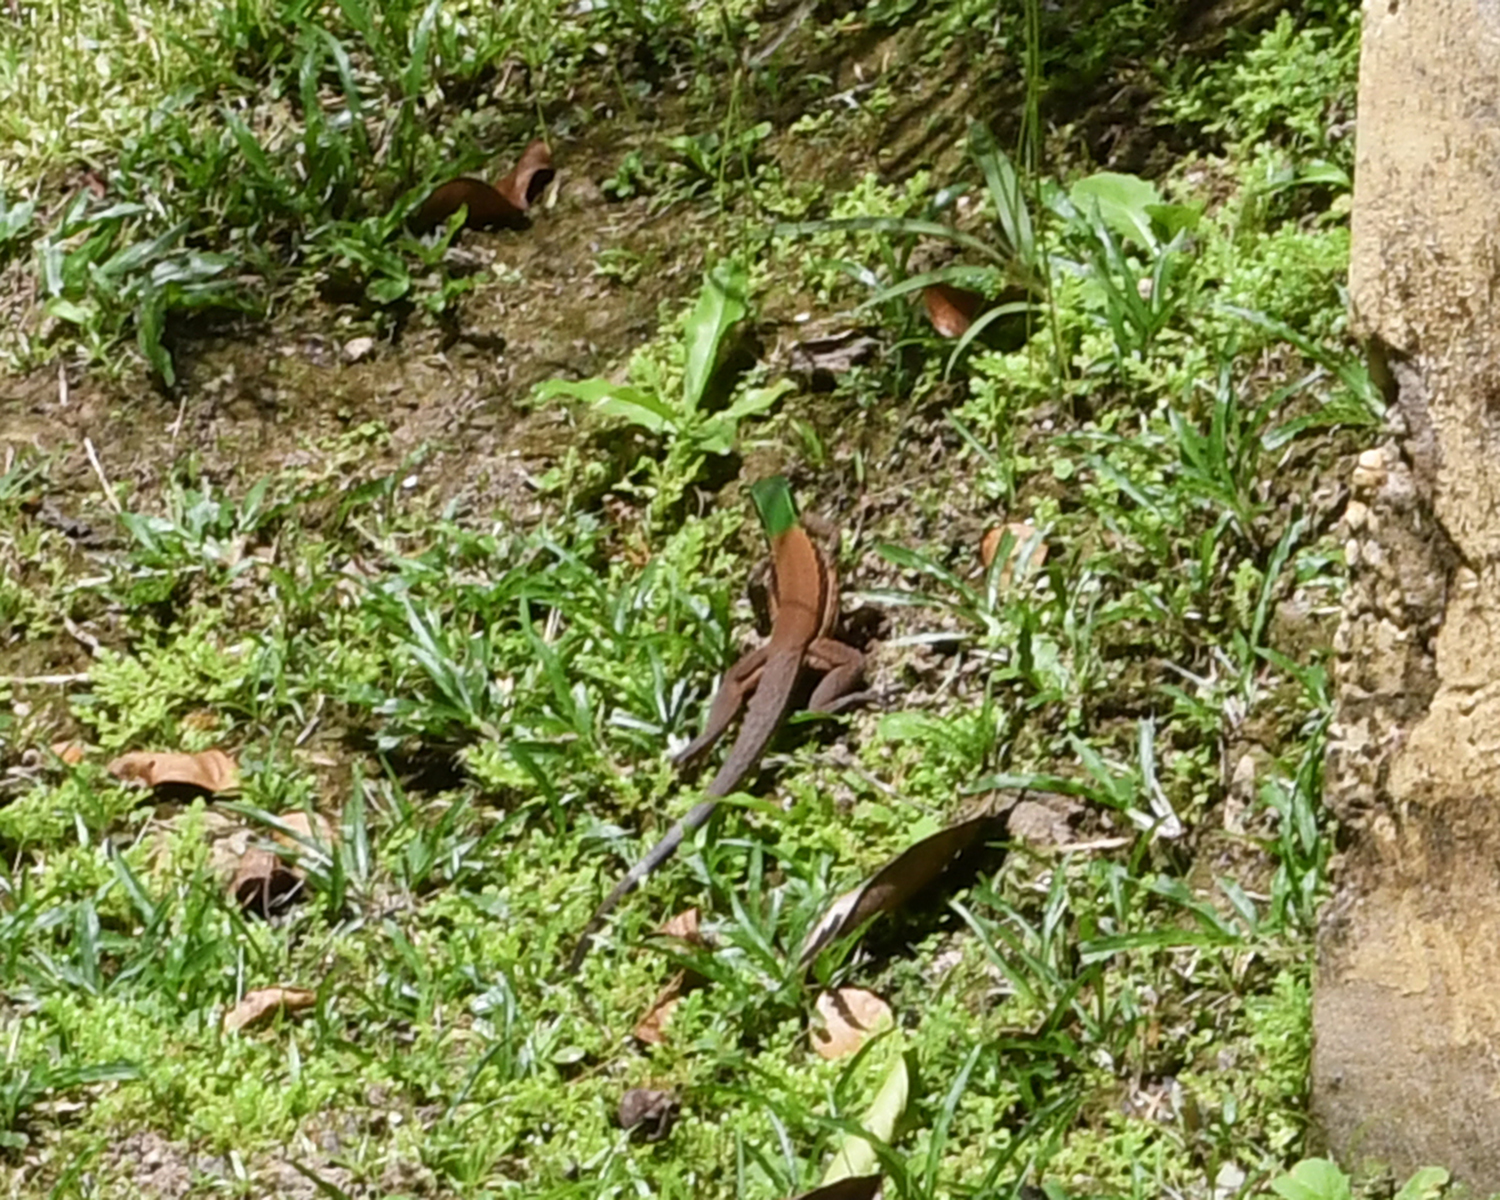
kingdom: Animalia
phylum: Chordata
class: Squamata
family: Teiidae
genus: Ameiva
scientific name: Ameiva atrigularis
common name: Venezuelan ameiva
